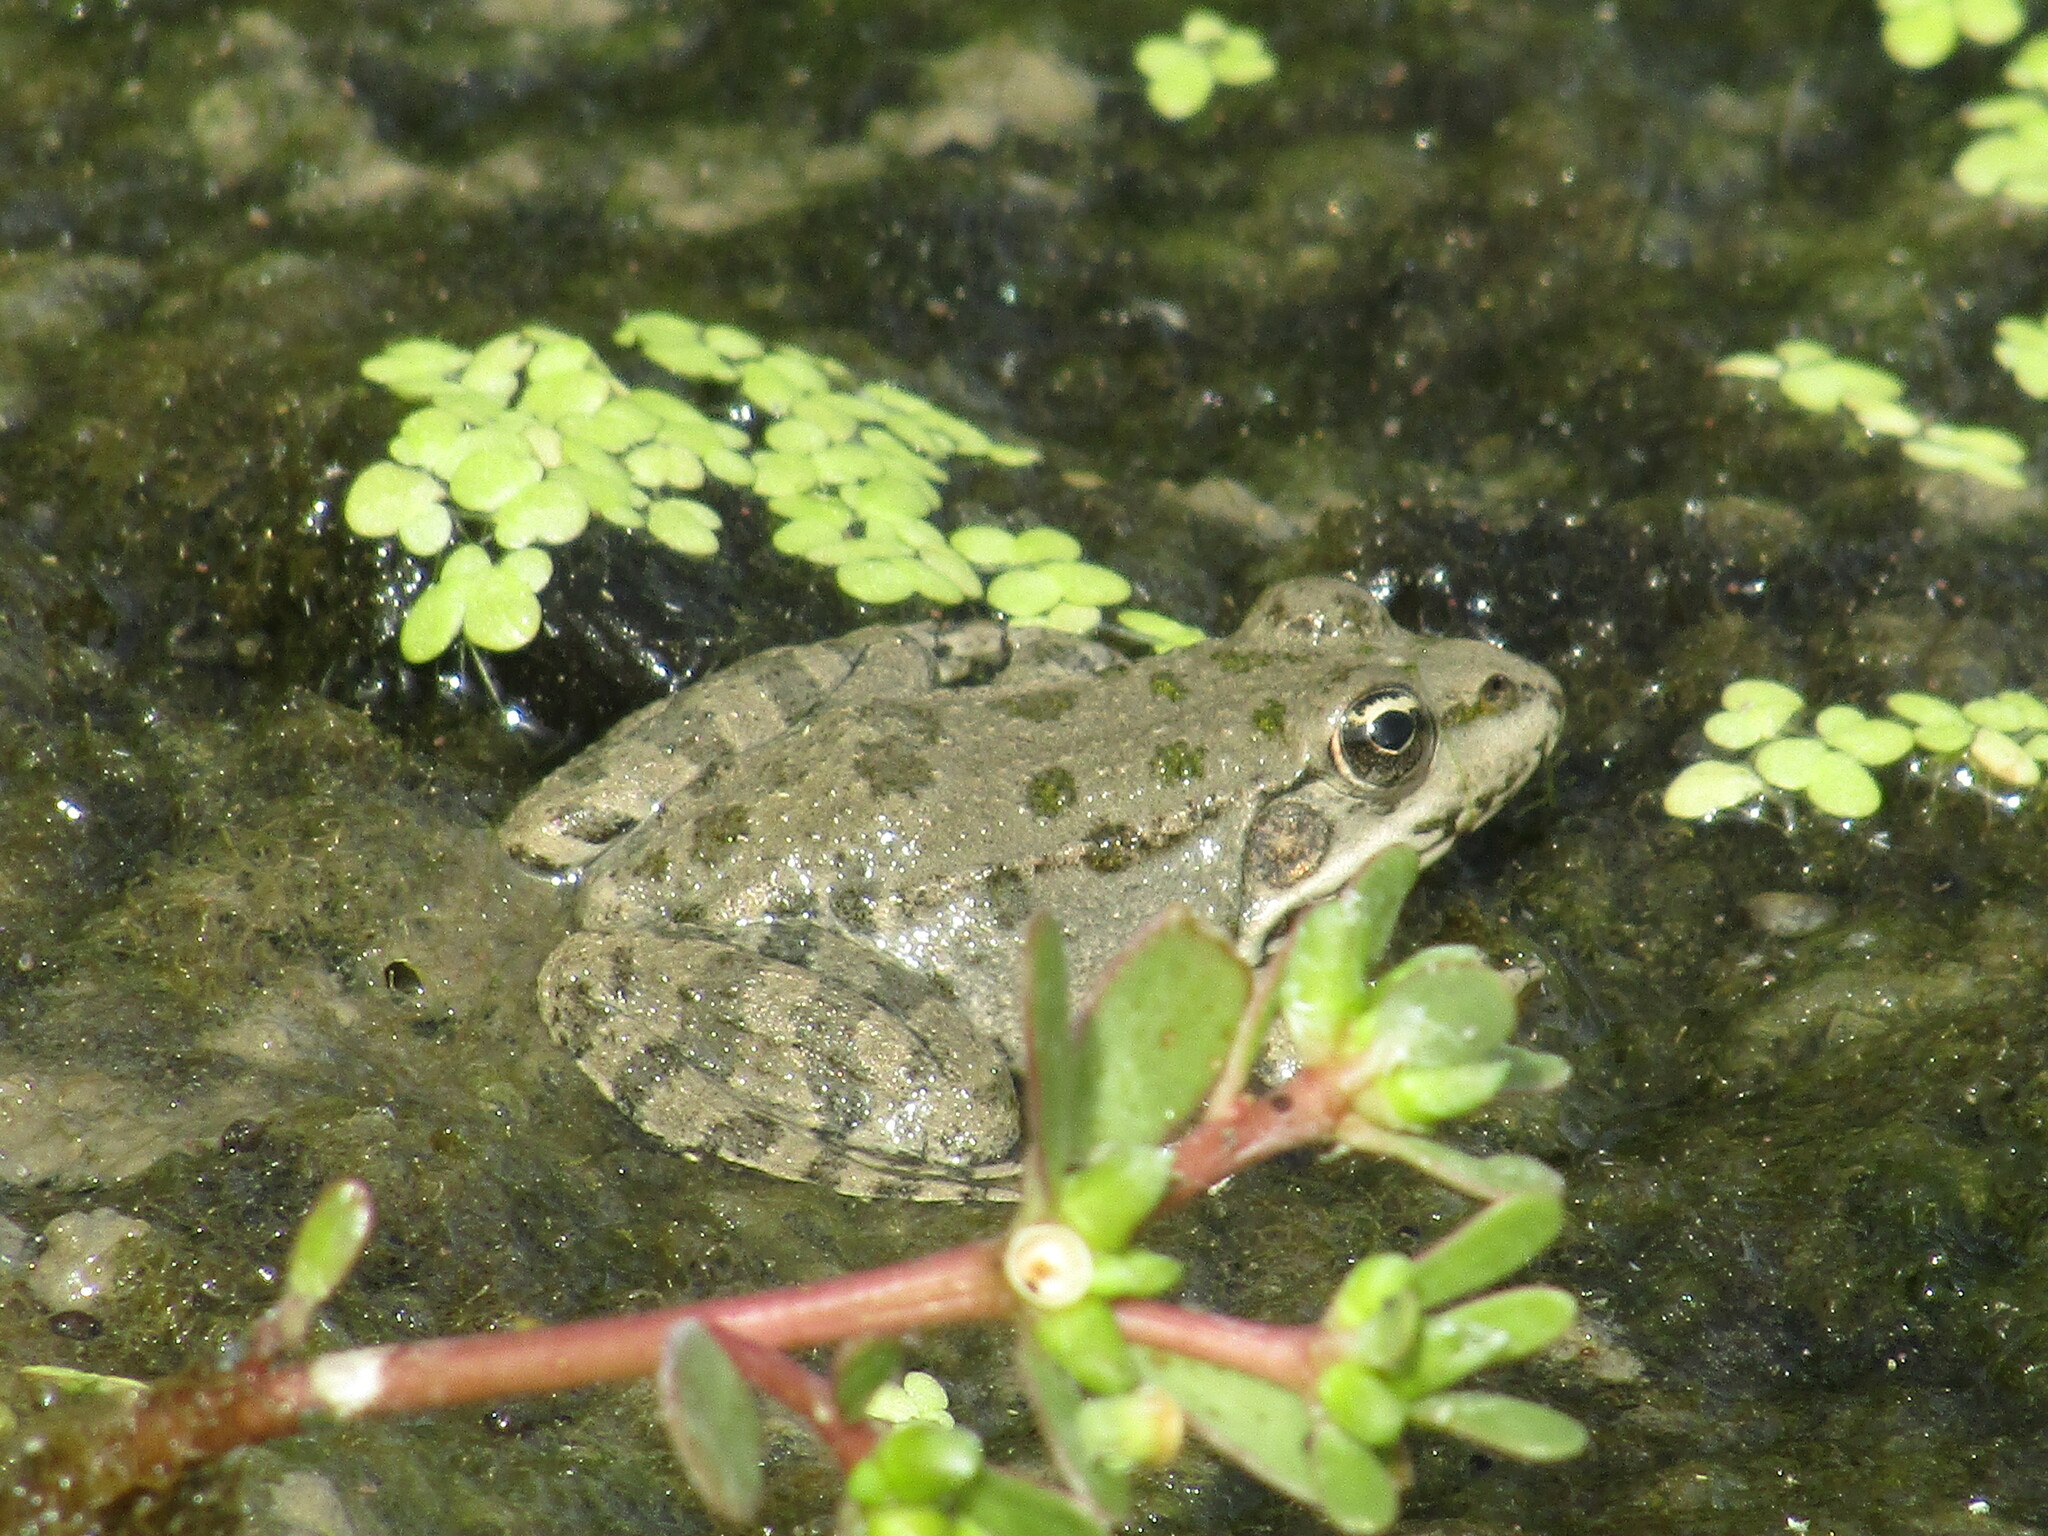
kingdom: Animalia
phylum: Chordata
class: Amphibia
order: Anura
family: Ranidae
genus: Pelophylax
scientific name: Pelophylax ridibundus
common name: Marsh frog
